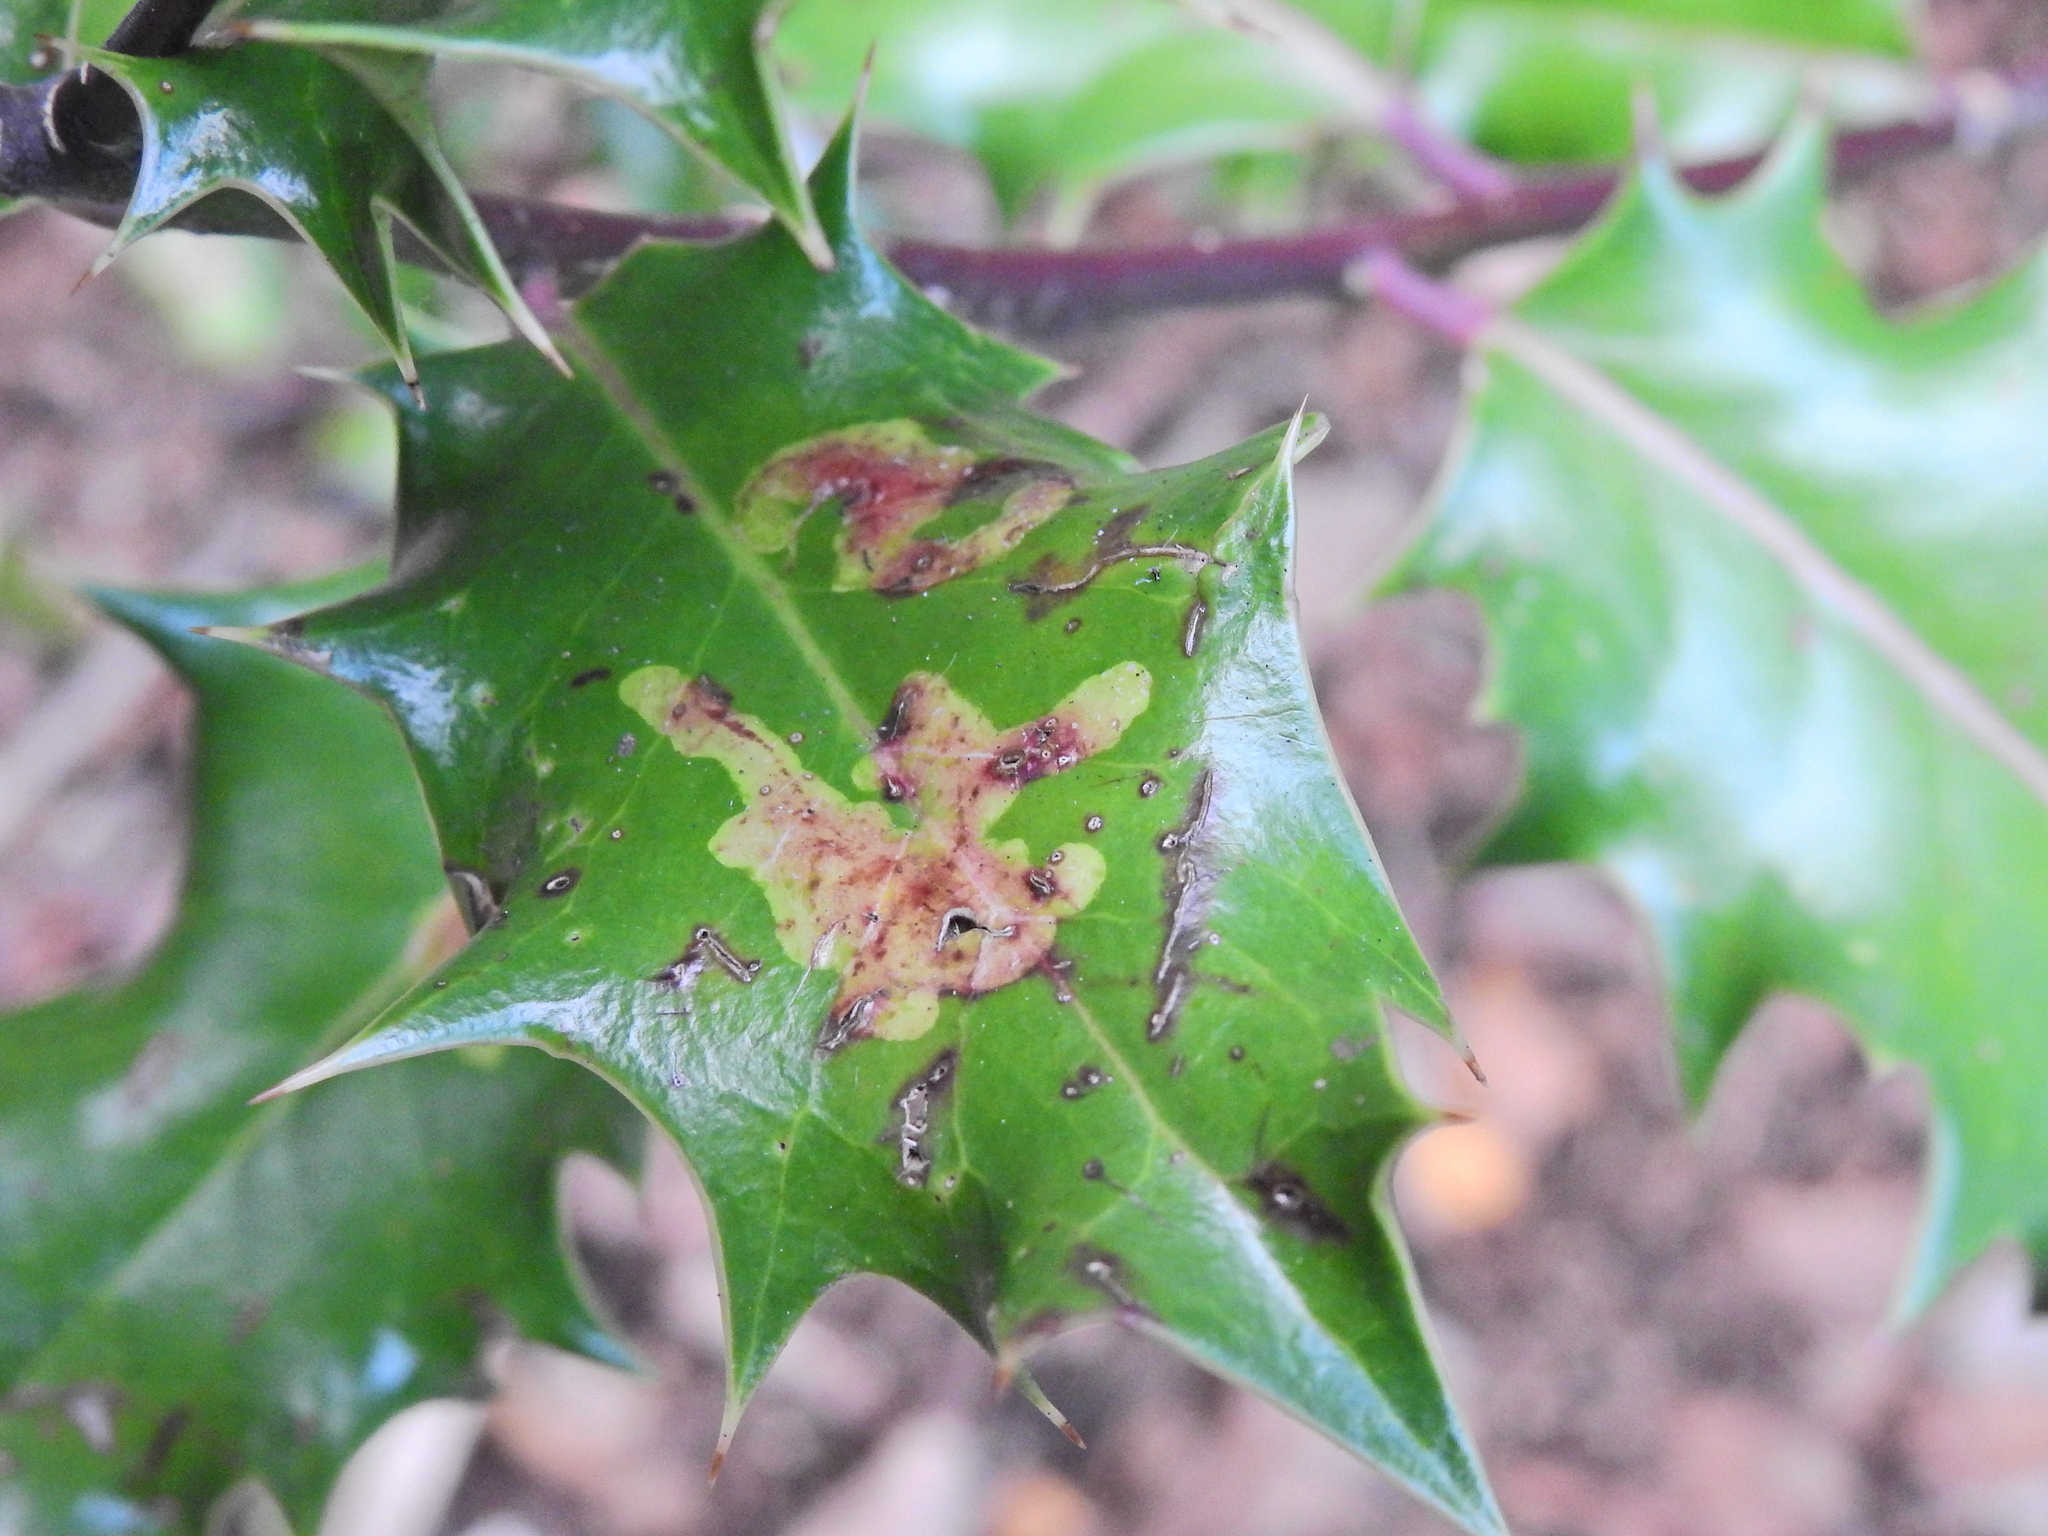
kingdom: Animalia
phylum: Arthropoda
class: Insecta
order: Diptera
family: Agromyzidae
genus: Phytomyza
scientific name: Phytomyza ilicis
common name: Holly leafminer
